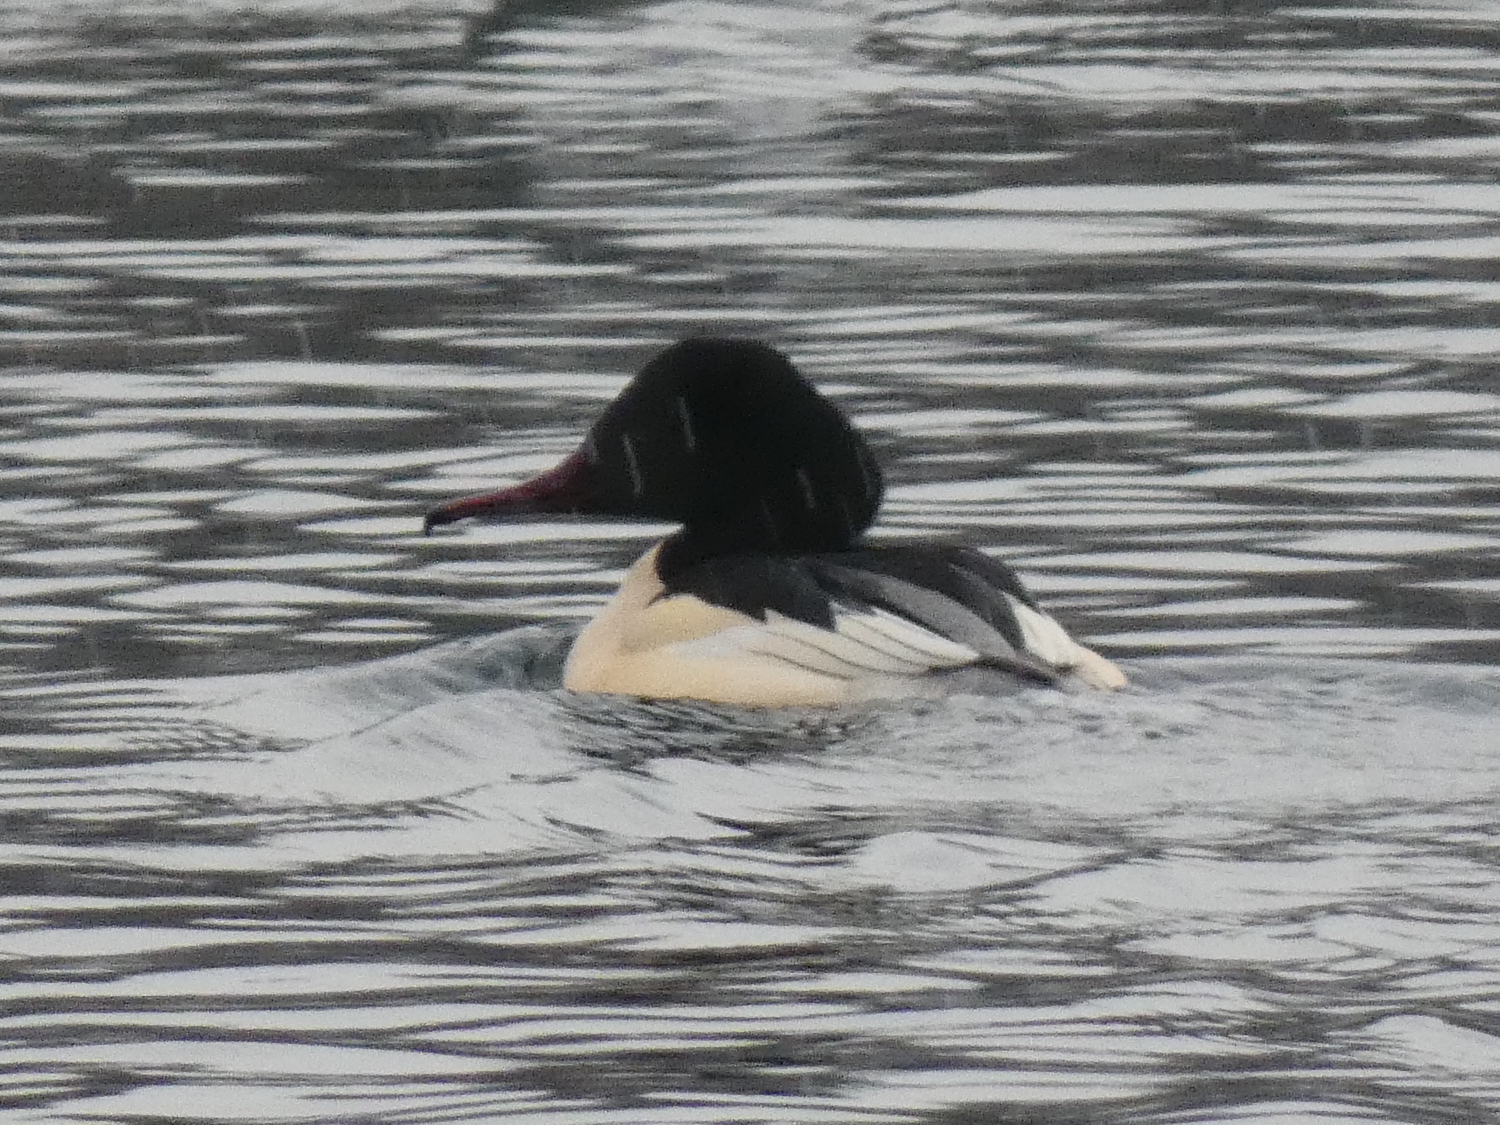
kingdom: Animalia
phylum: Chordata
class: Aves
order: Anseriformes
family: Anatidae
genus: Mergus
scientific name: Mergus merganser
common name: Common merganser
